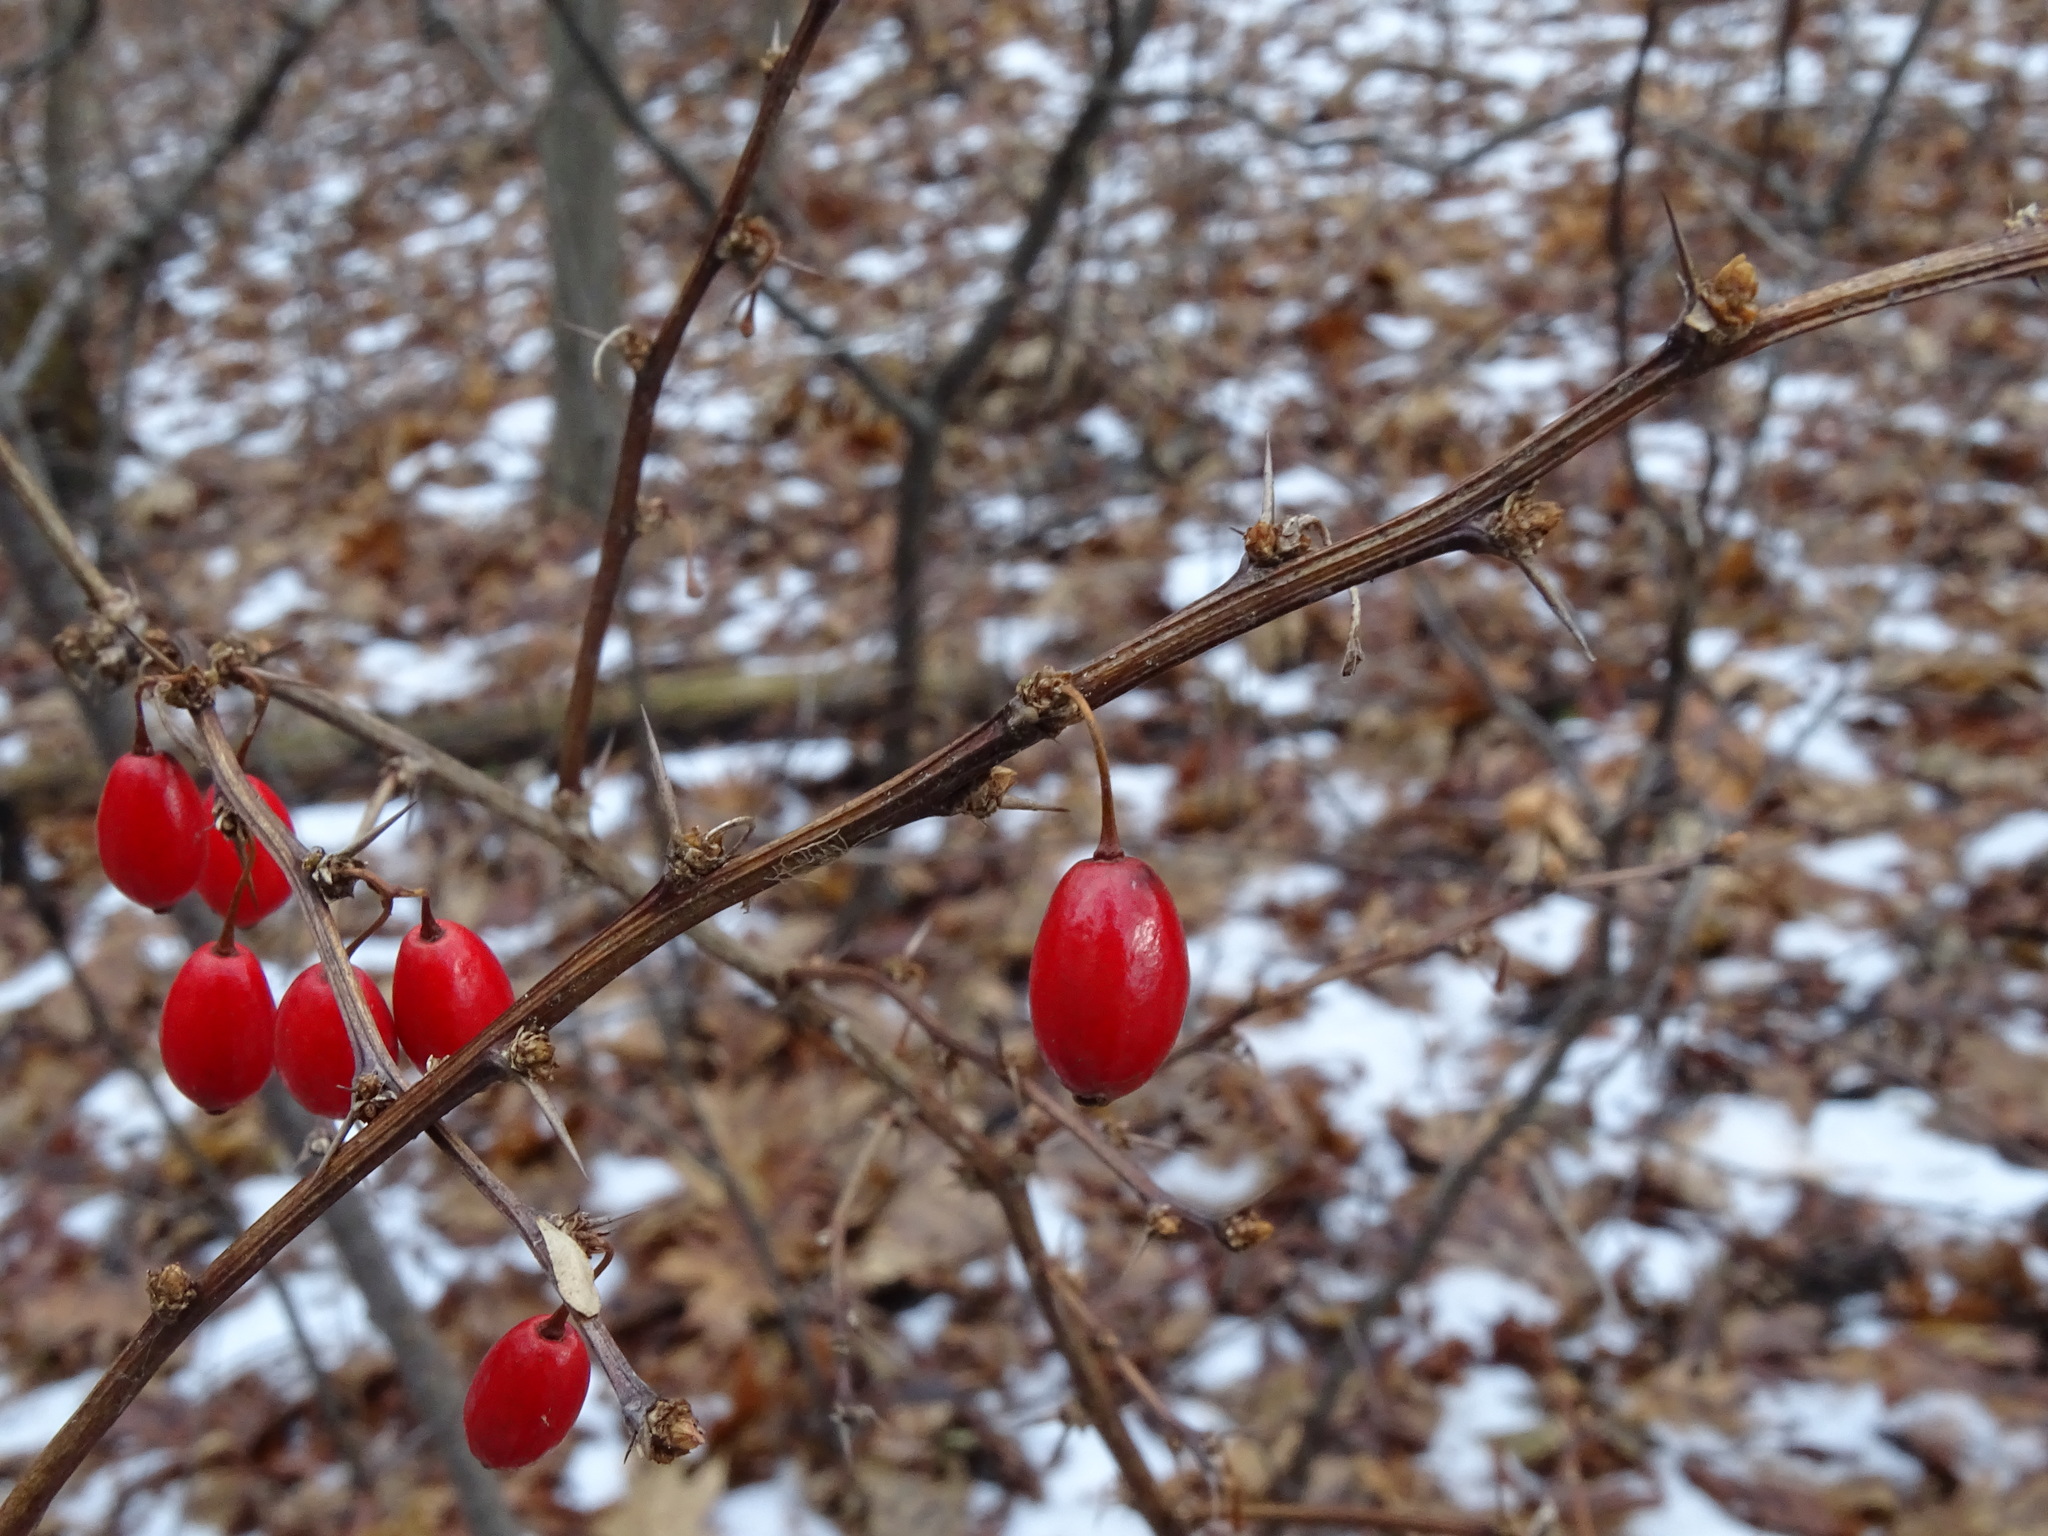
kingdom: Plantae
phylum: Tracheophyta
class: Magnoliopsida
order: Ranunculales
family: Berberidaceae
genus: Berberis
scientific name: Berberis thunbergii
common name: Japanese barberry
